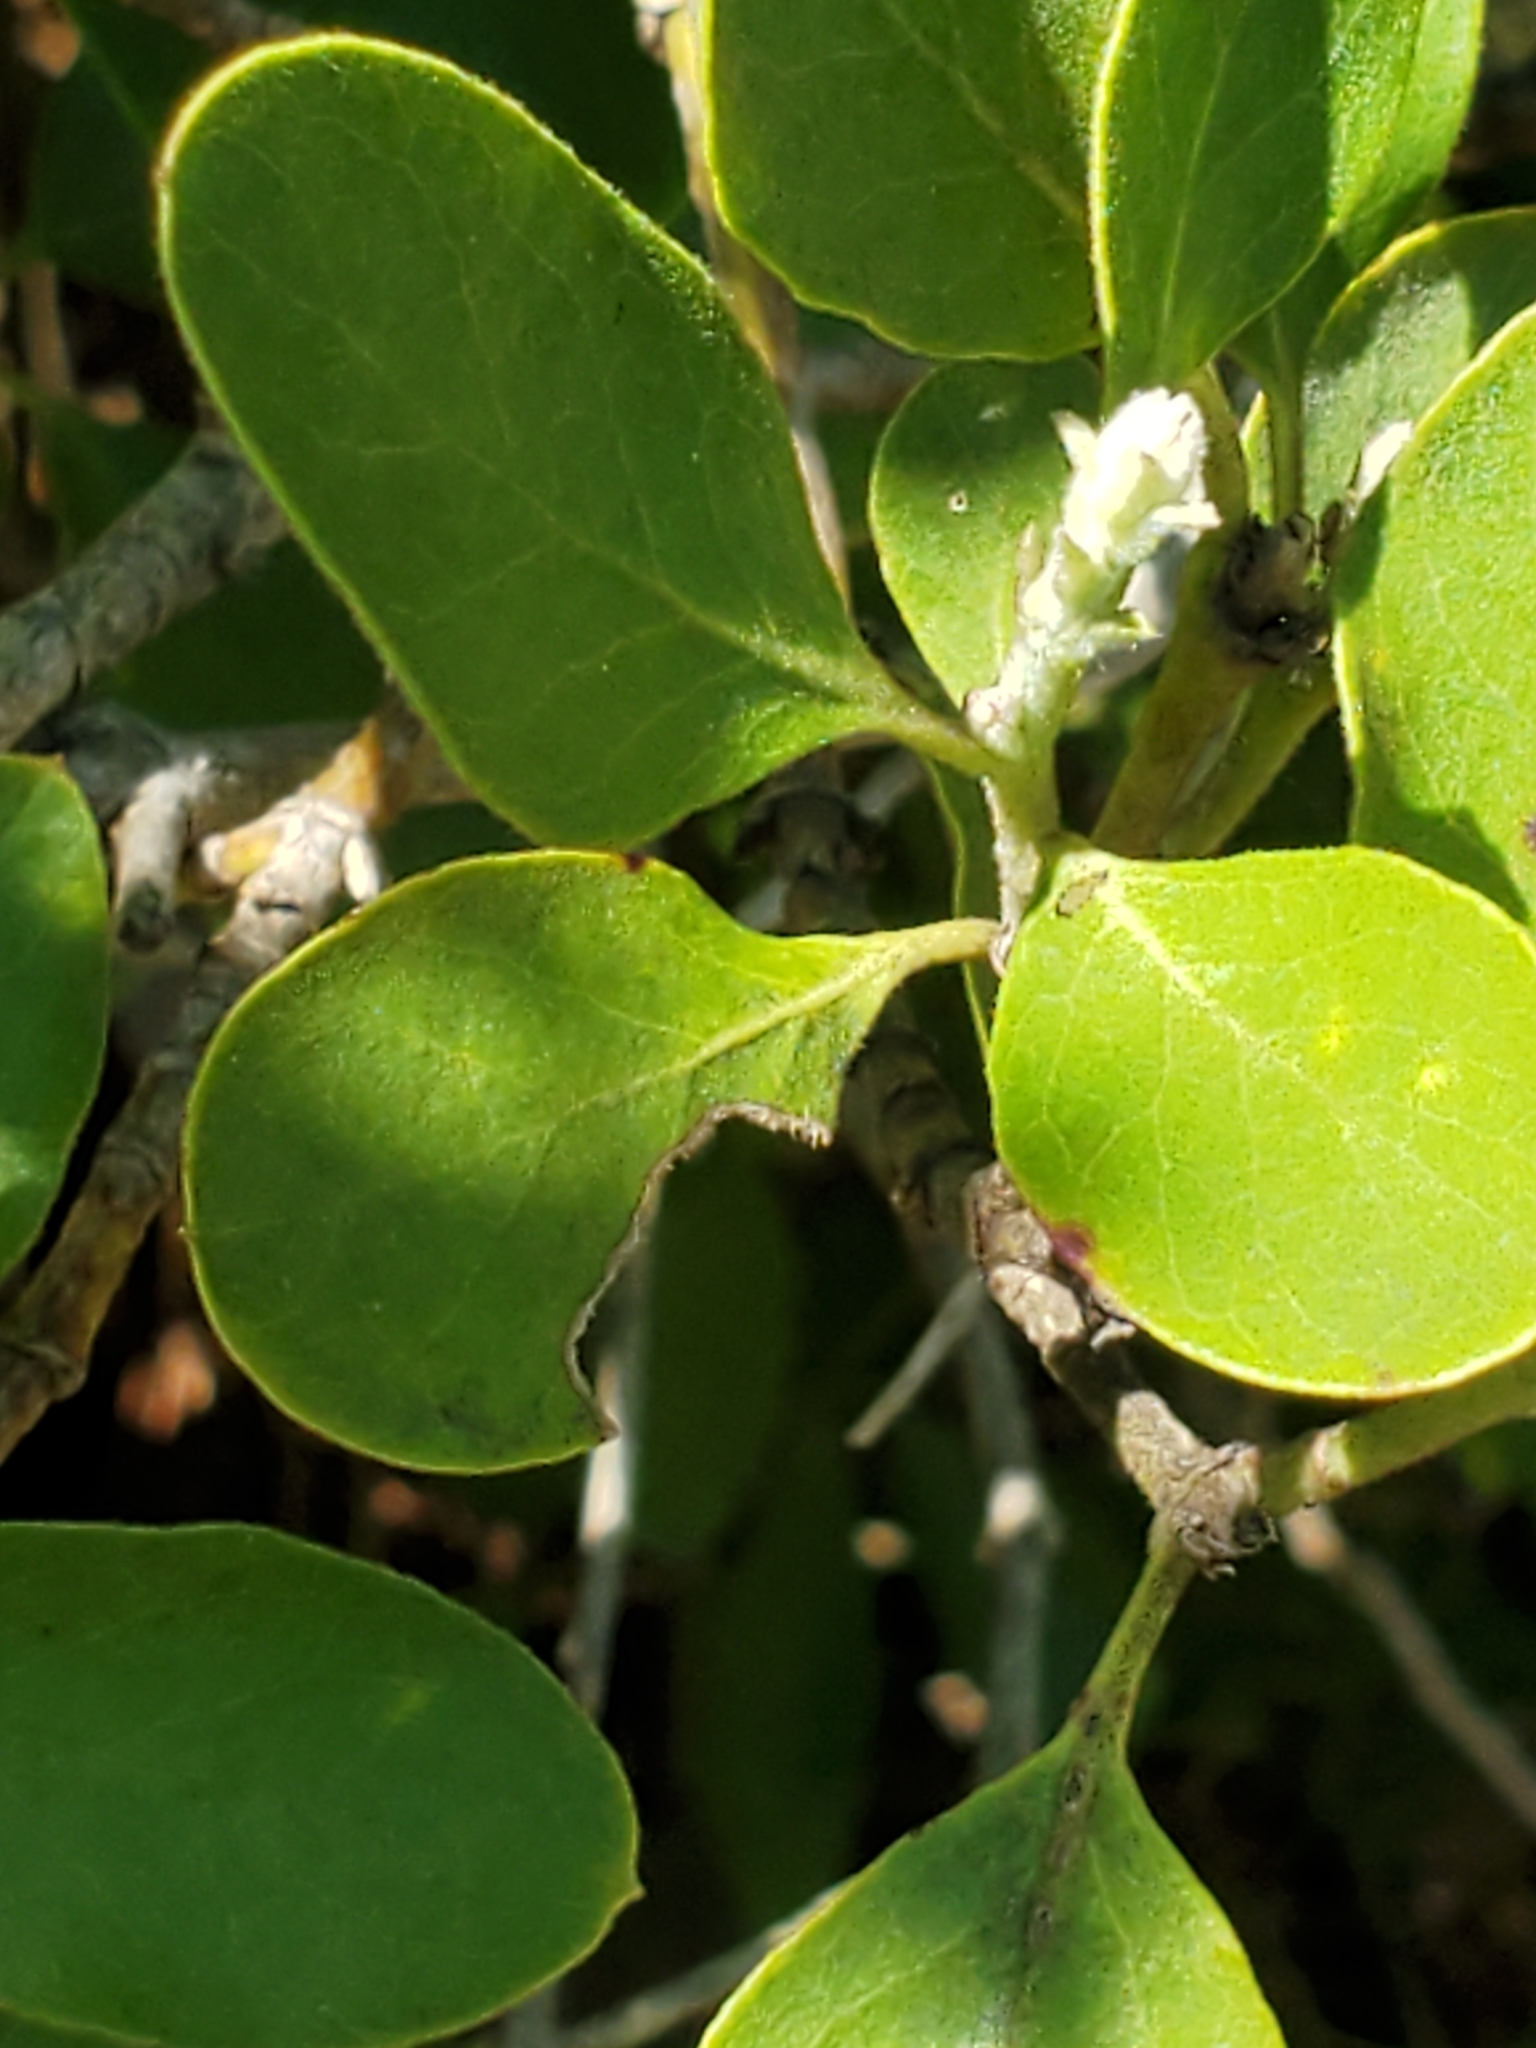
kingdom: Plantae
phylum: Tracheophyta
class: Magnoliopsida
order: Garryales
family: Garryaceae
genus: Garrya
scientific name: Garrya lindheimeri
